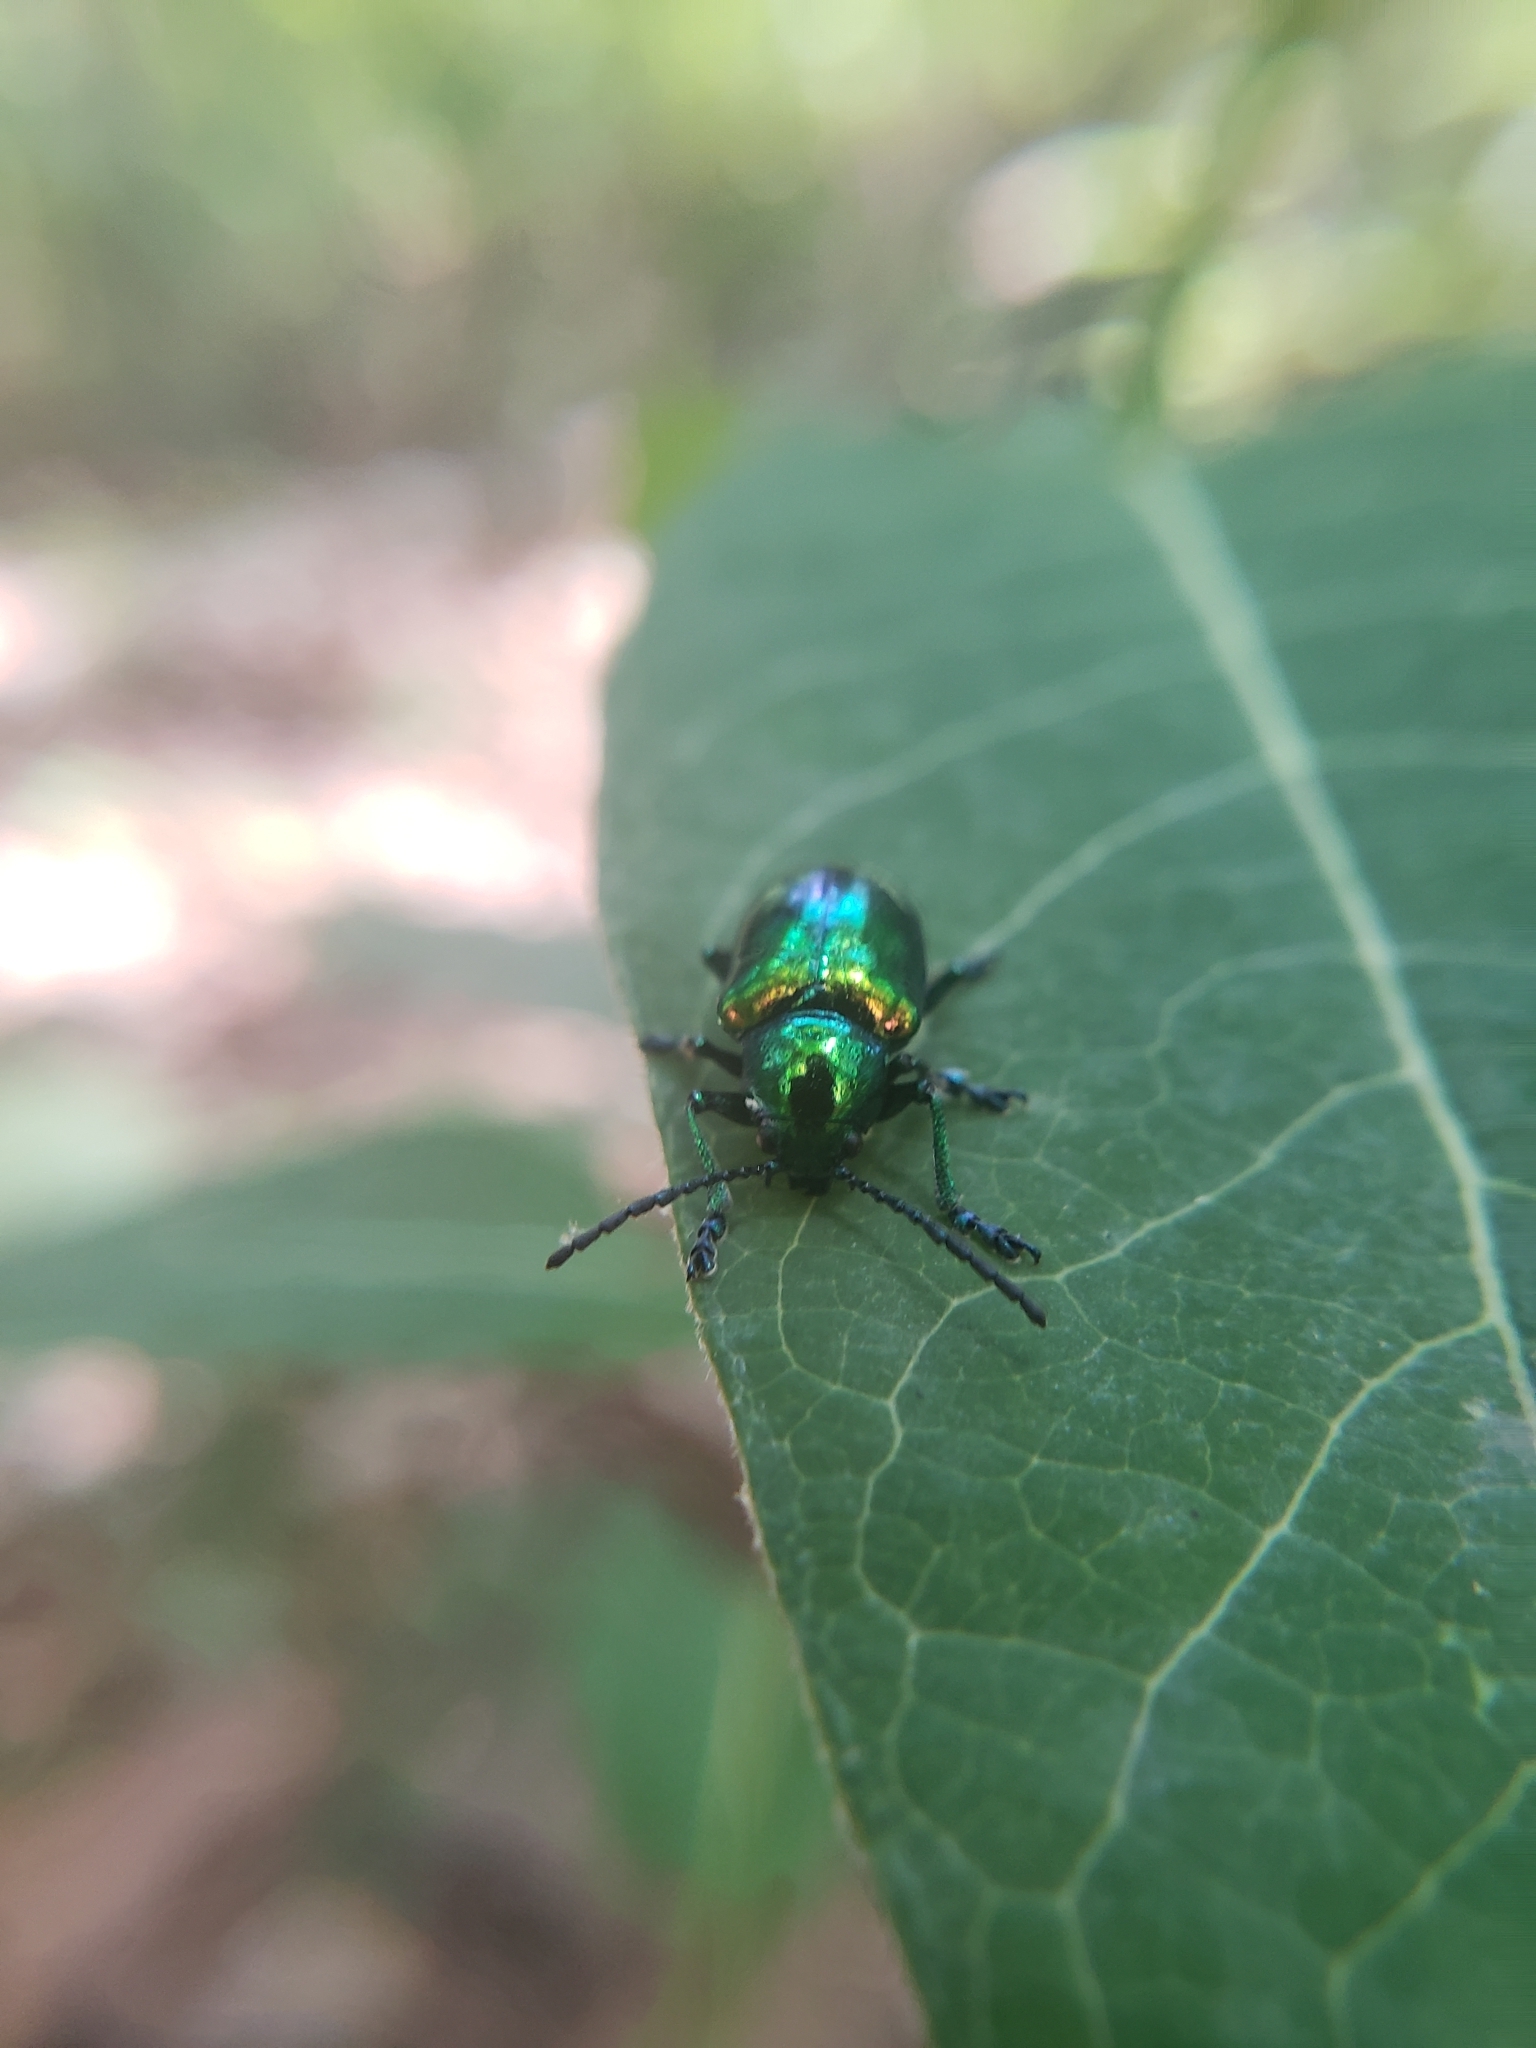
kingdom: Animalia
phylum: Arthropoda
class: Insecta
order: Coleoptera
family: Chrysomelidae
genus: Chrysochus
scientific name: Chrysochus auratus
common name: Dogbane leaf beetle
